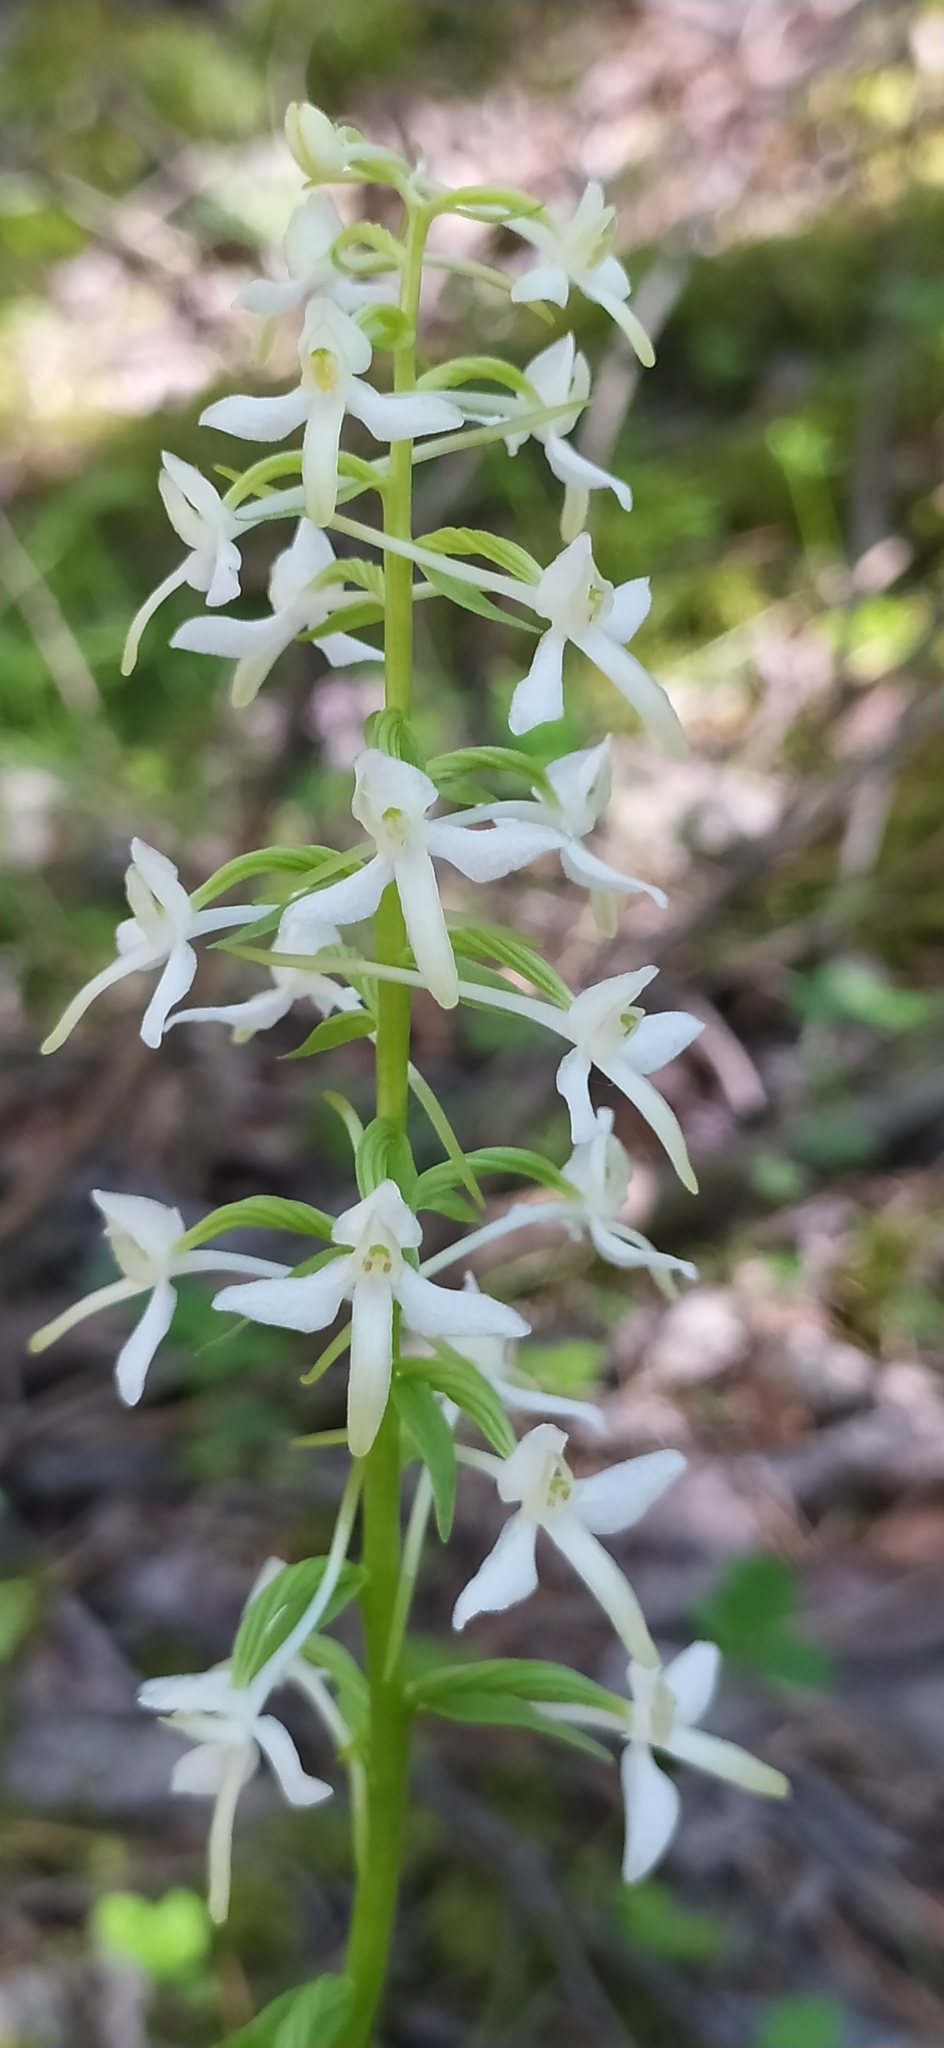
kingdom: Plantae
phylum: Tracheophyta
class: Liliopsida
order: Asparagales
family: Orchidaceae
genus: Platanthera
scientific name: Platanthera bifolia
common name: Lesser butterfly-orchid
